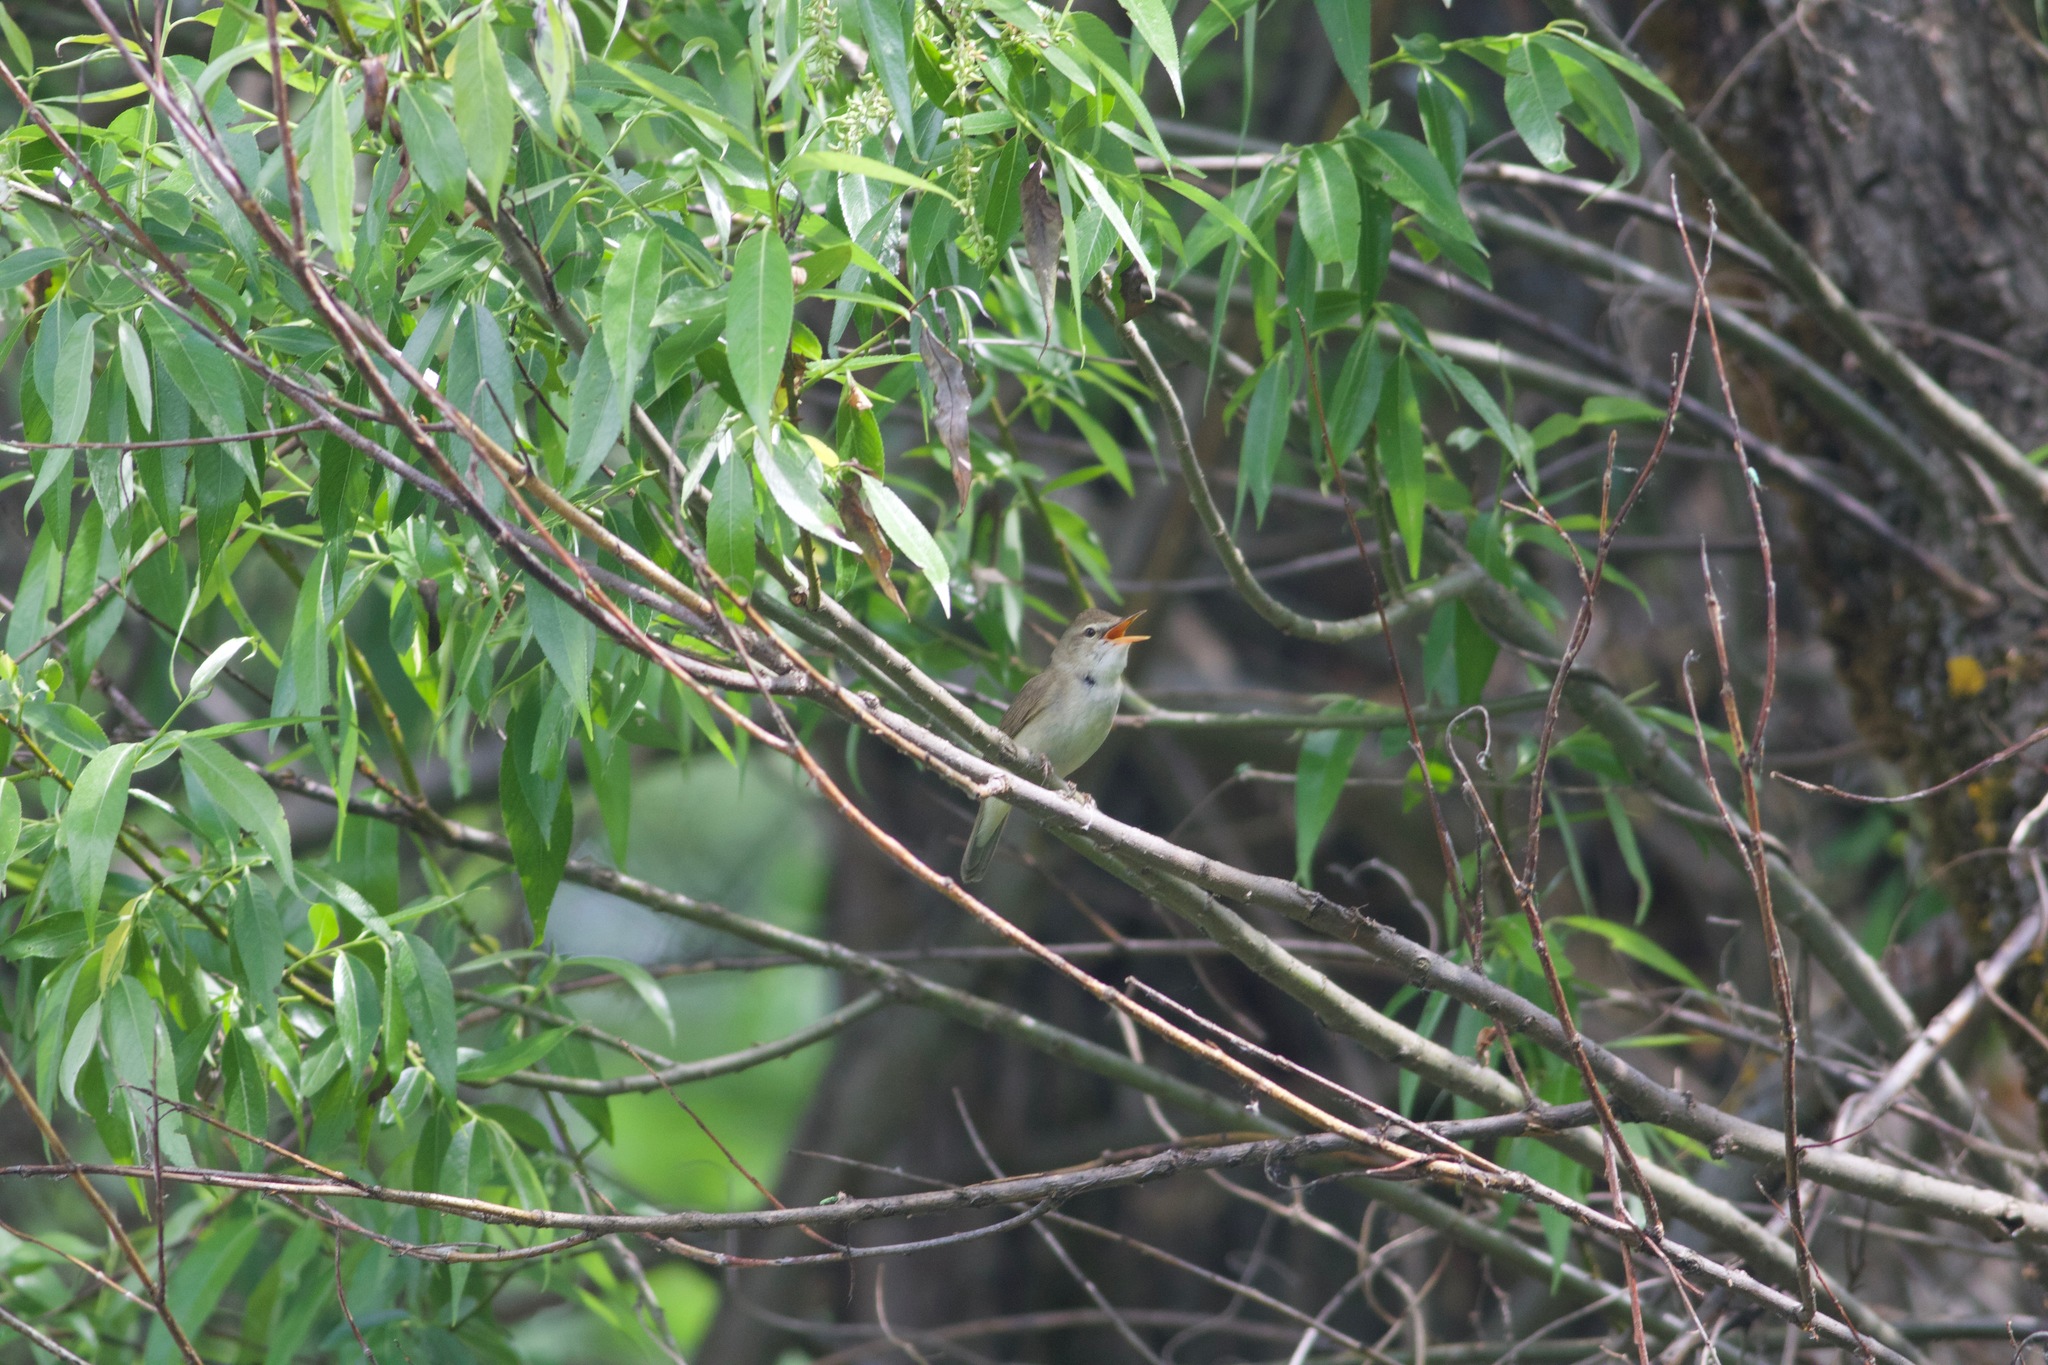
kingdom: Animalia
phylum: Chordata
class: Aves
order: Passeriformes
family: Acrocephalidae
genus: Acrocephalus
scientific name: Acrocephalus dumetorum
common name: Blyth's reed warbler
